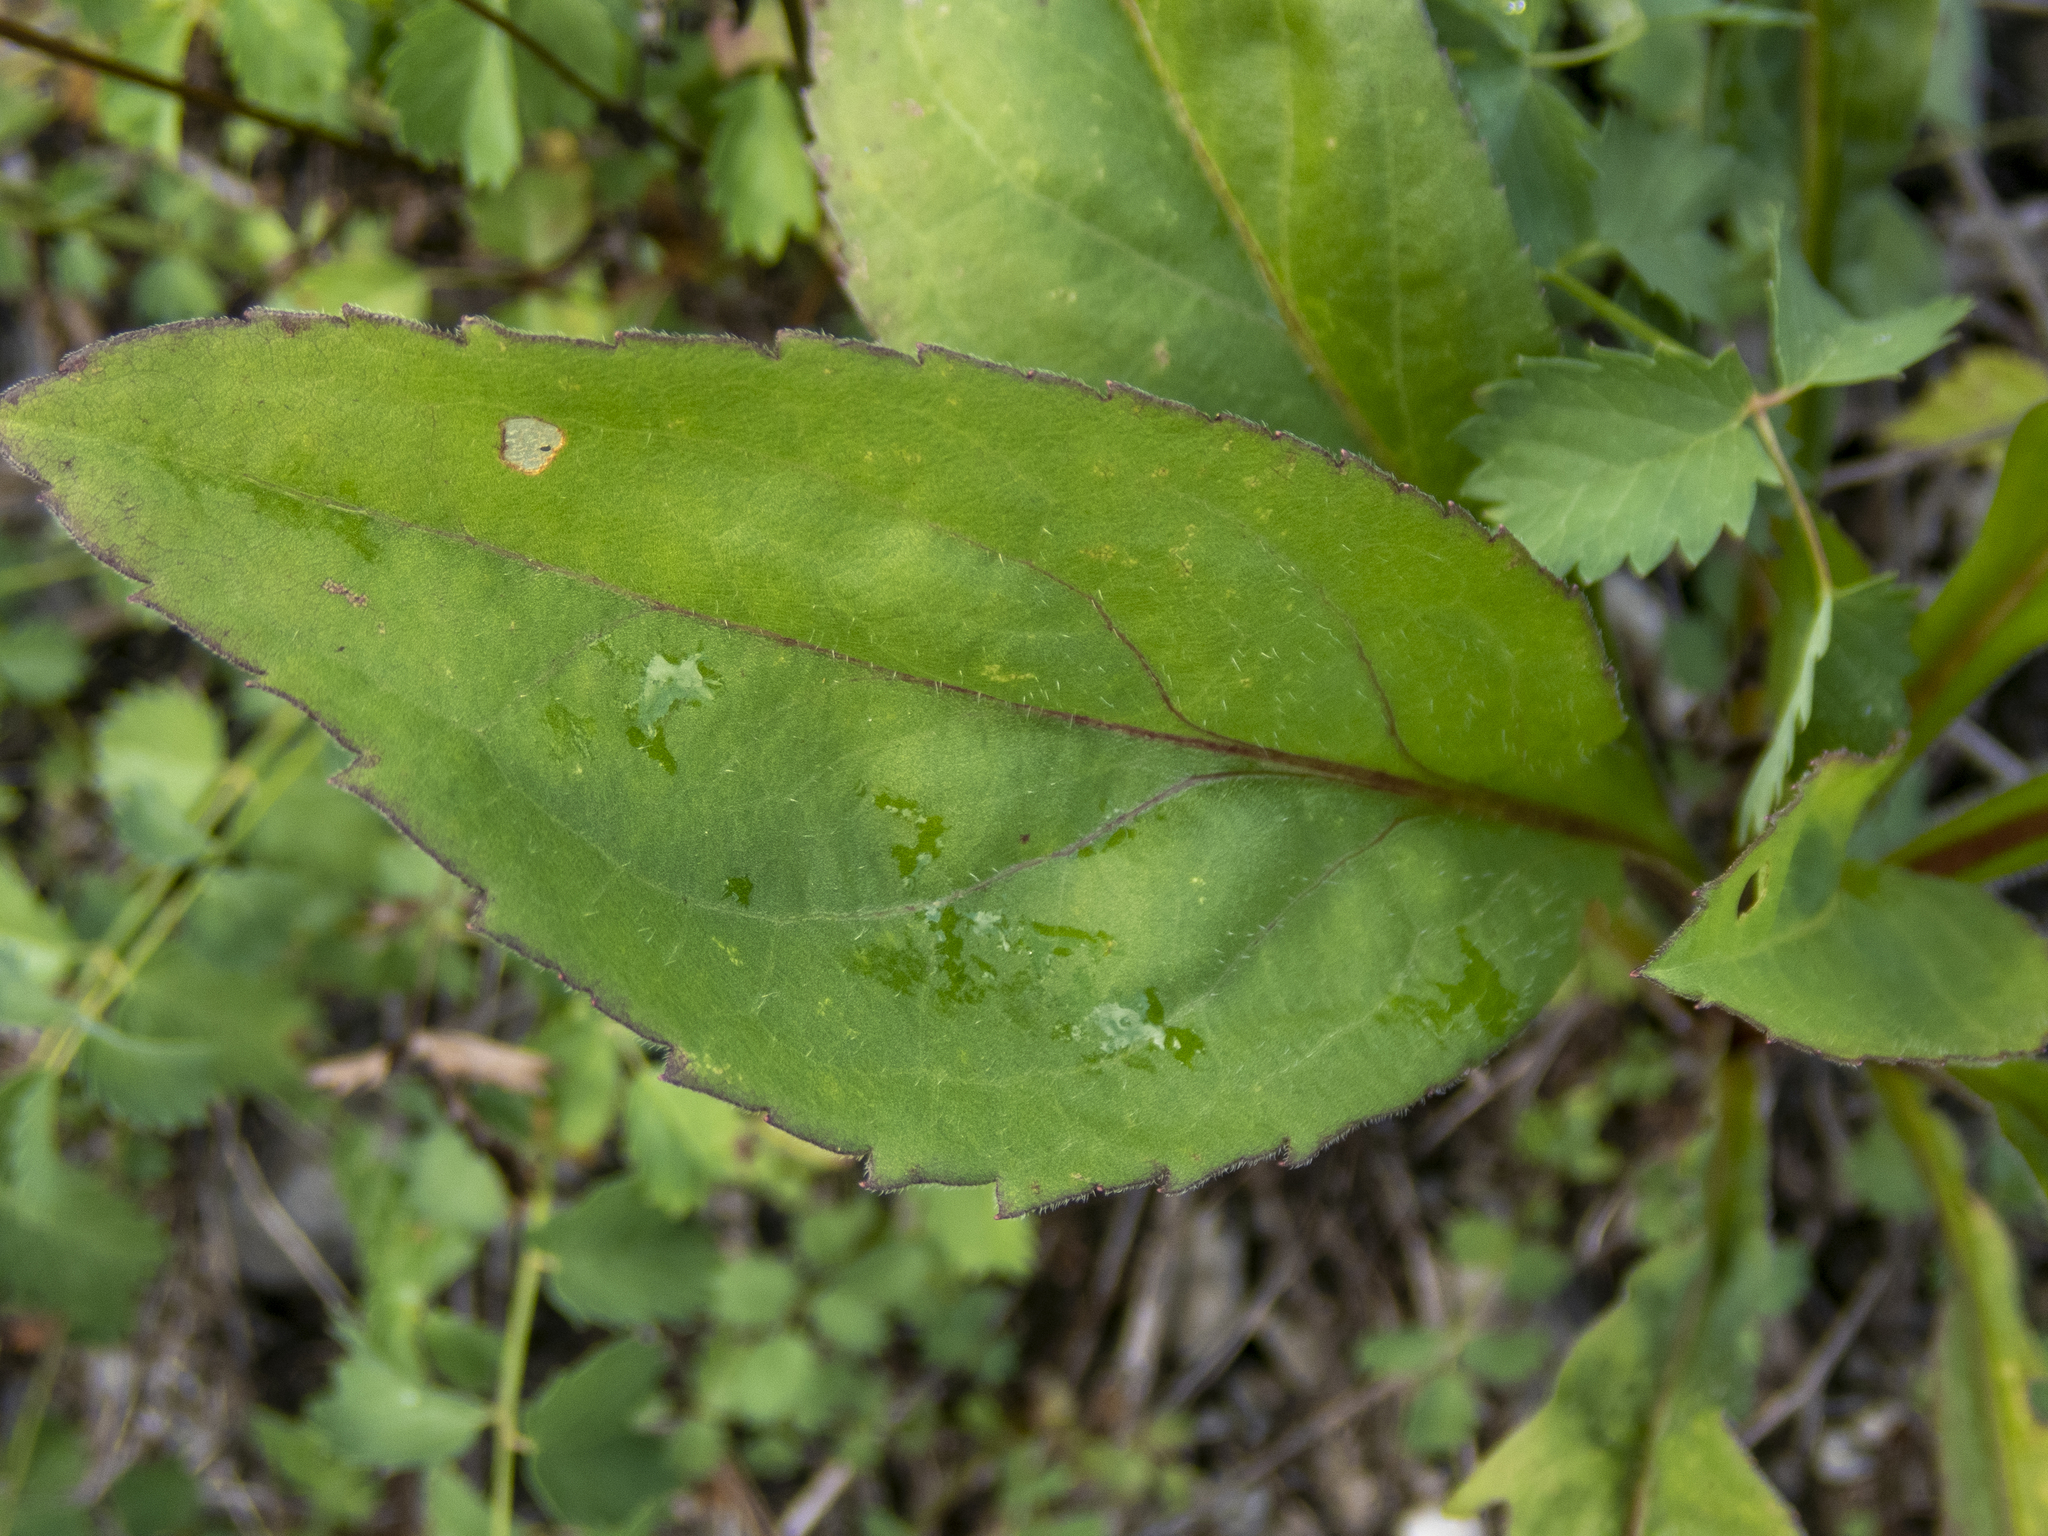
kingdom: Plantae
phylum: Tracheophyta
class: Magnoliopsida
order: Asterales
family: Asteraceae
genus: Solidago
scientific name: Solidago patula
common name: Rough-leaf goldenrod
